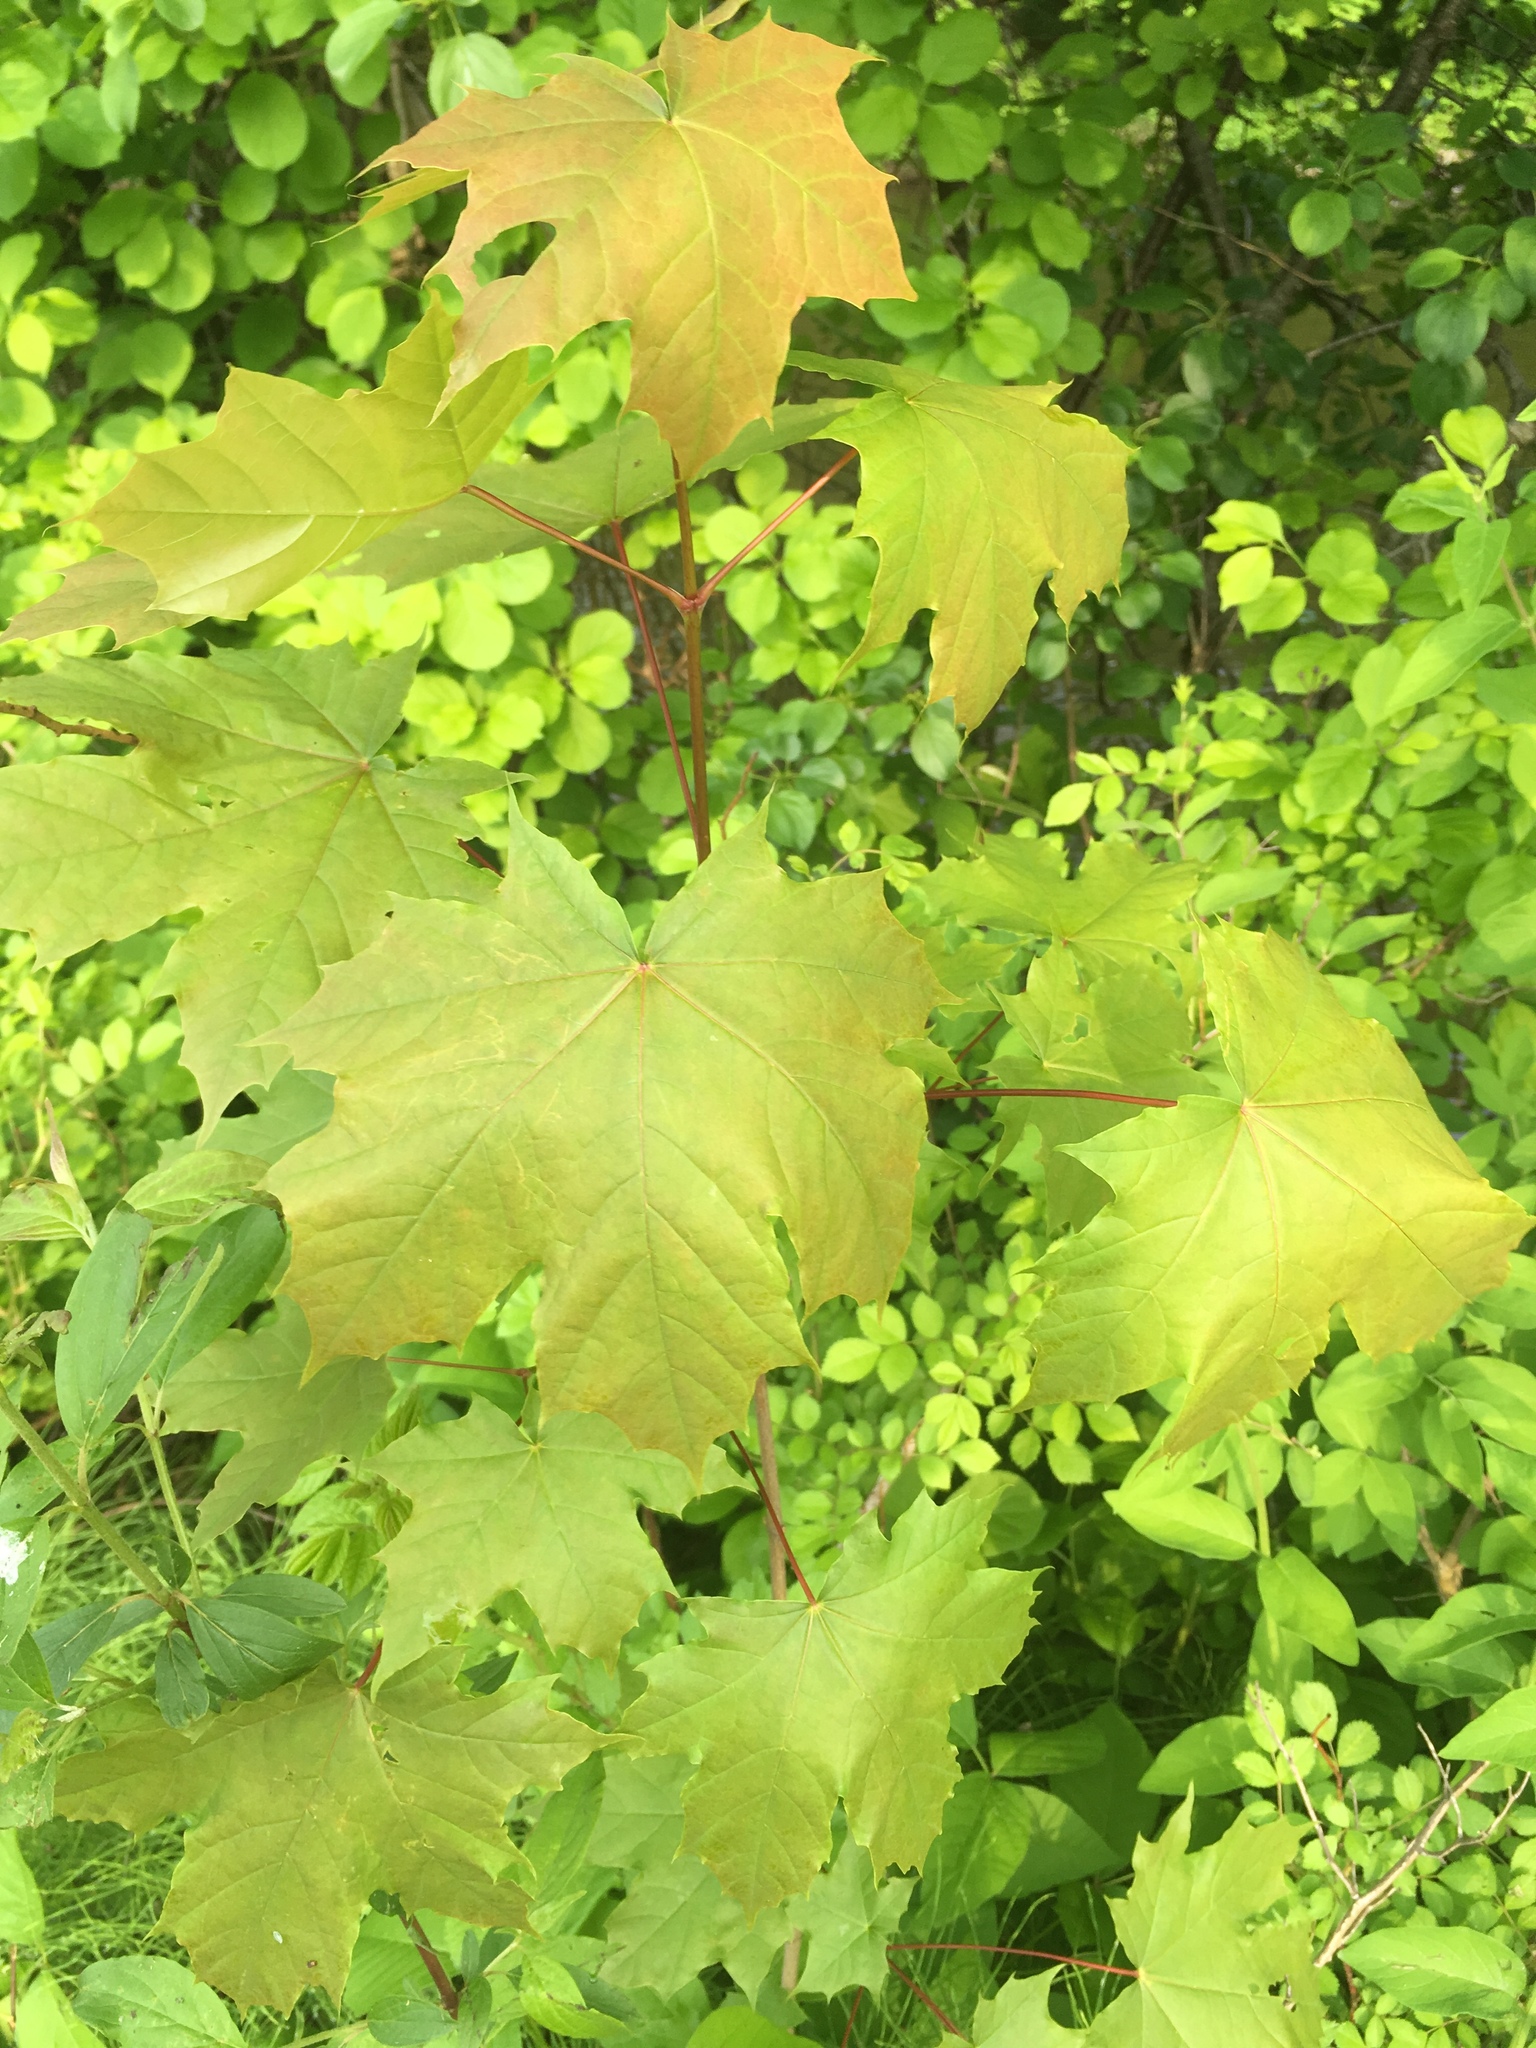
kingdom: Plantae
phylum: Tracheophyta
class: Magnoliopsida
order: Sapindales
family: Sapindaceae
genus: Acer
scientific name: Acer platanoides
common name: Norway maple
